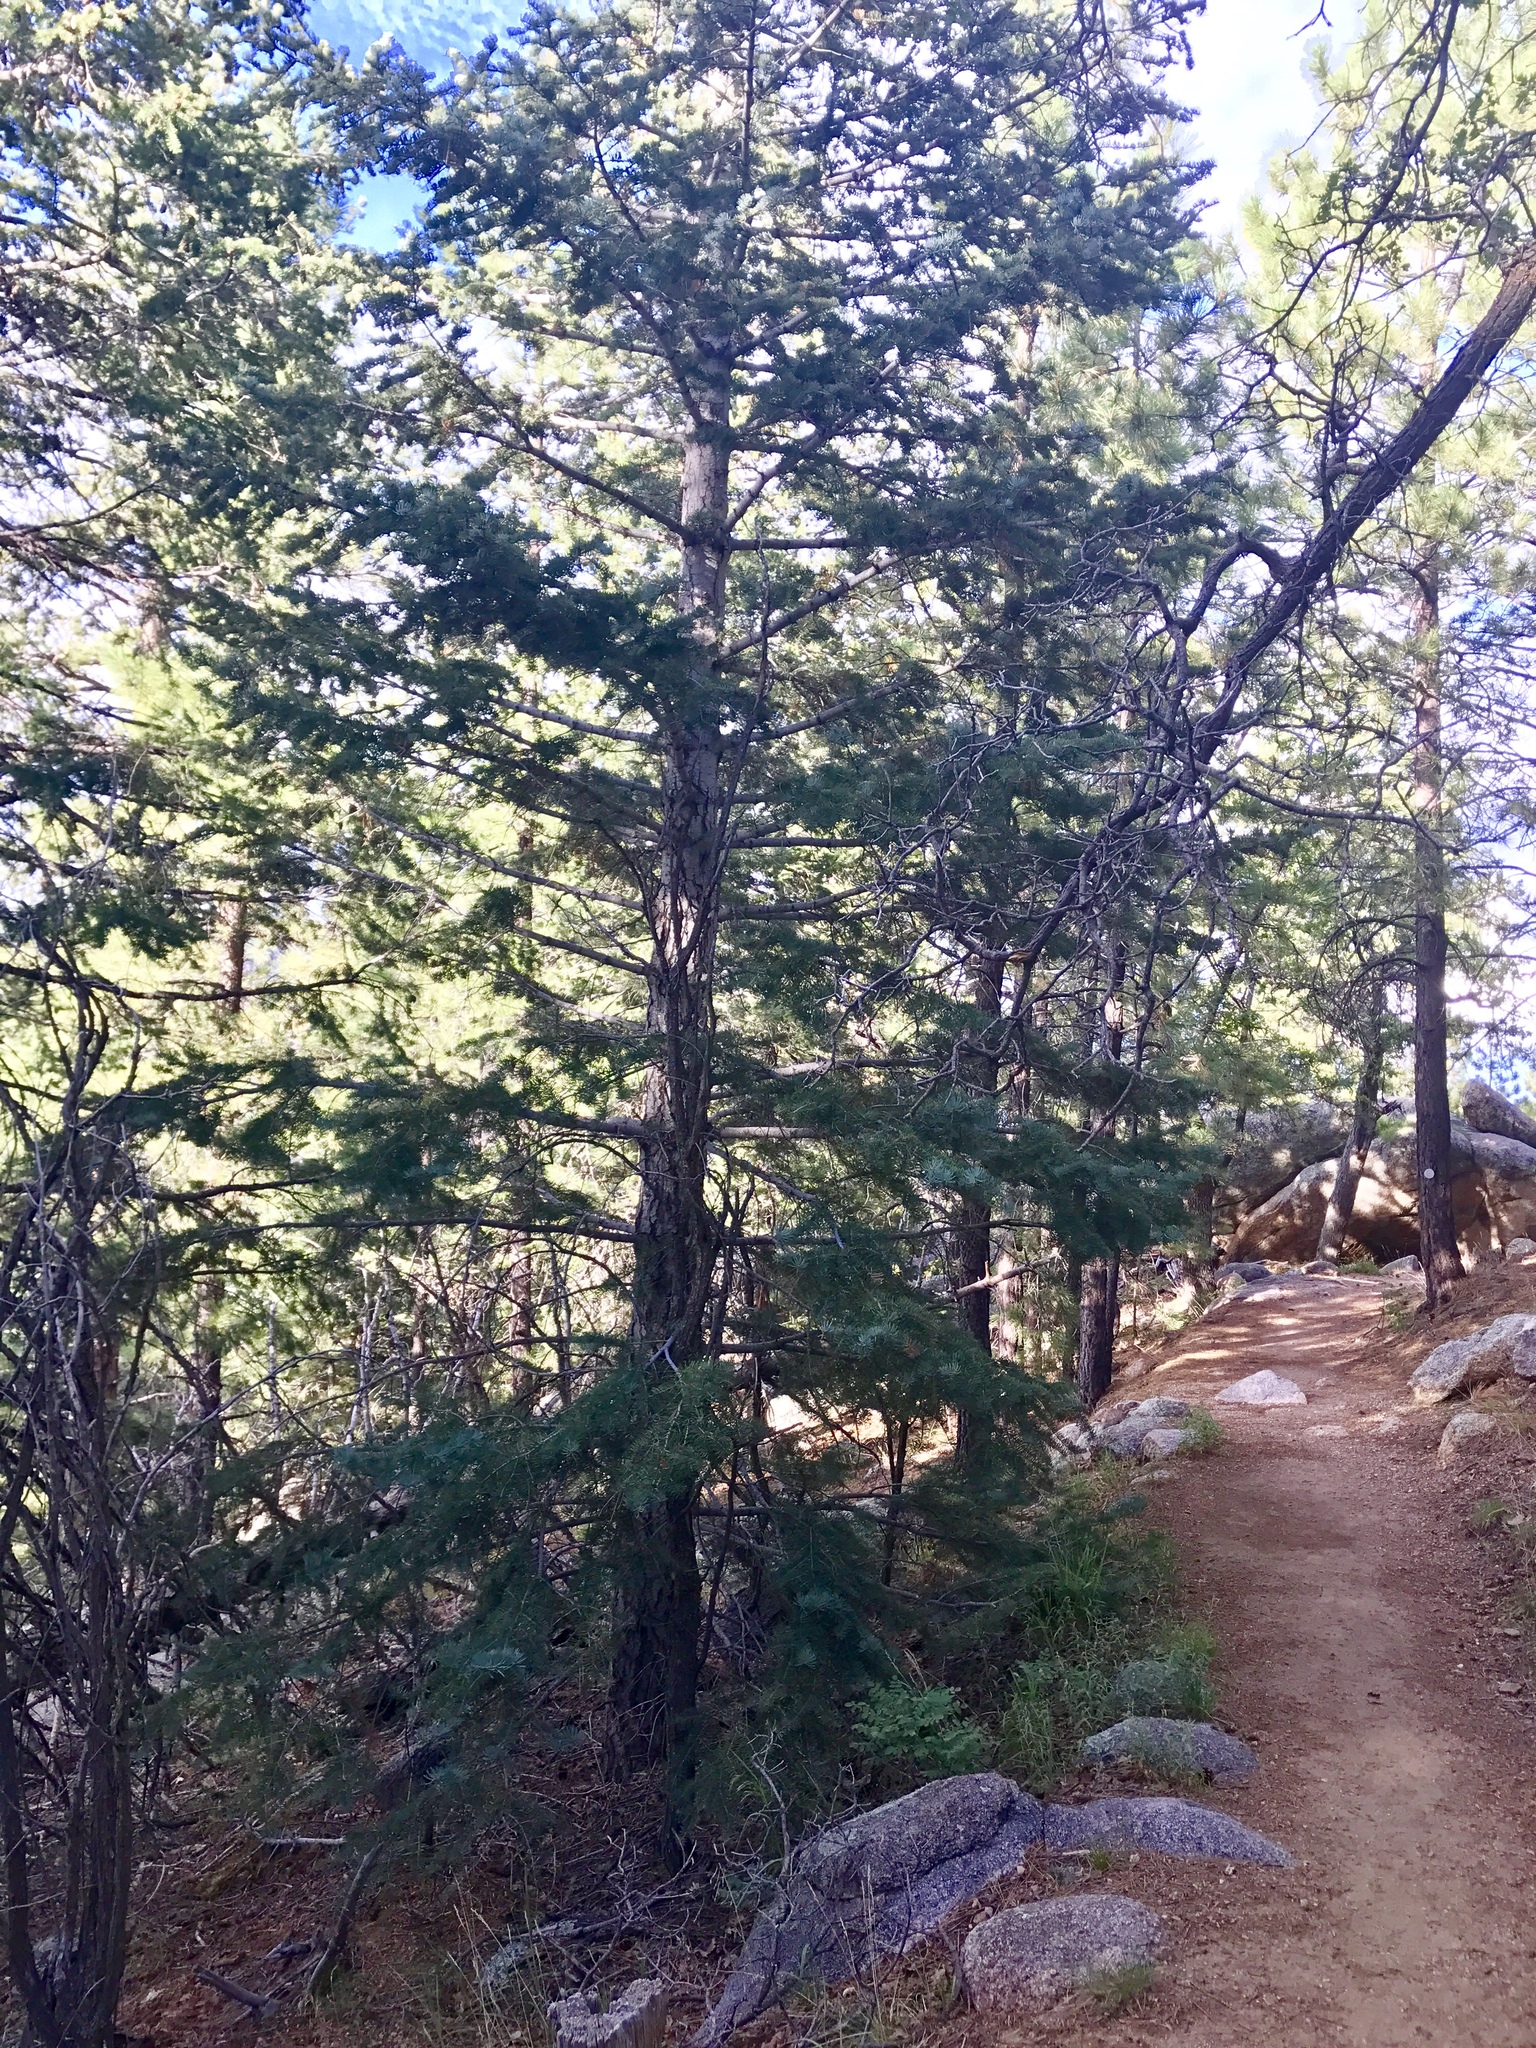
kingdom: Plantae
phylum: Tracheophyta
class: Pinopsida
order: Pinales
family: Pinaceae
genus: Abies
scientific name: Abies concolor
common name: Colorado fir
